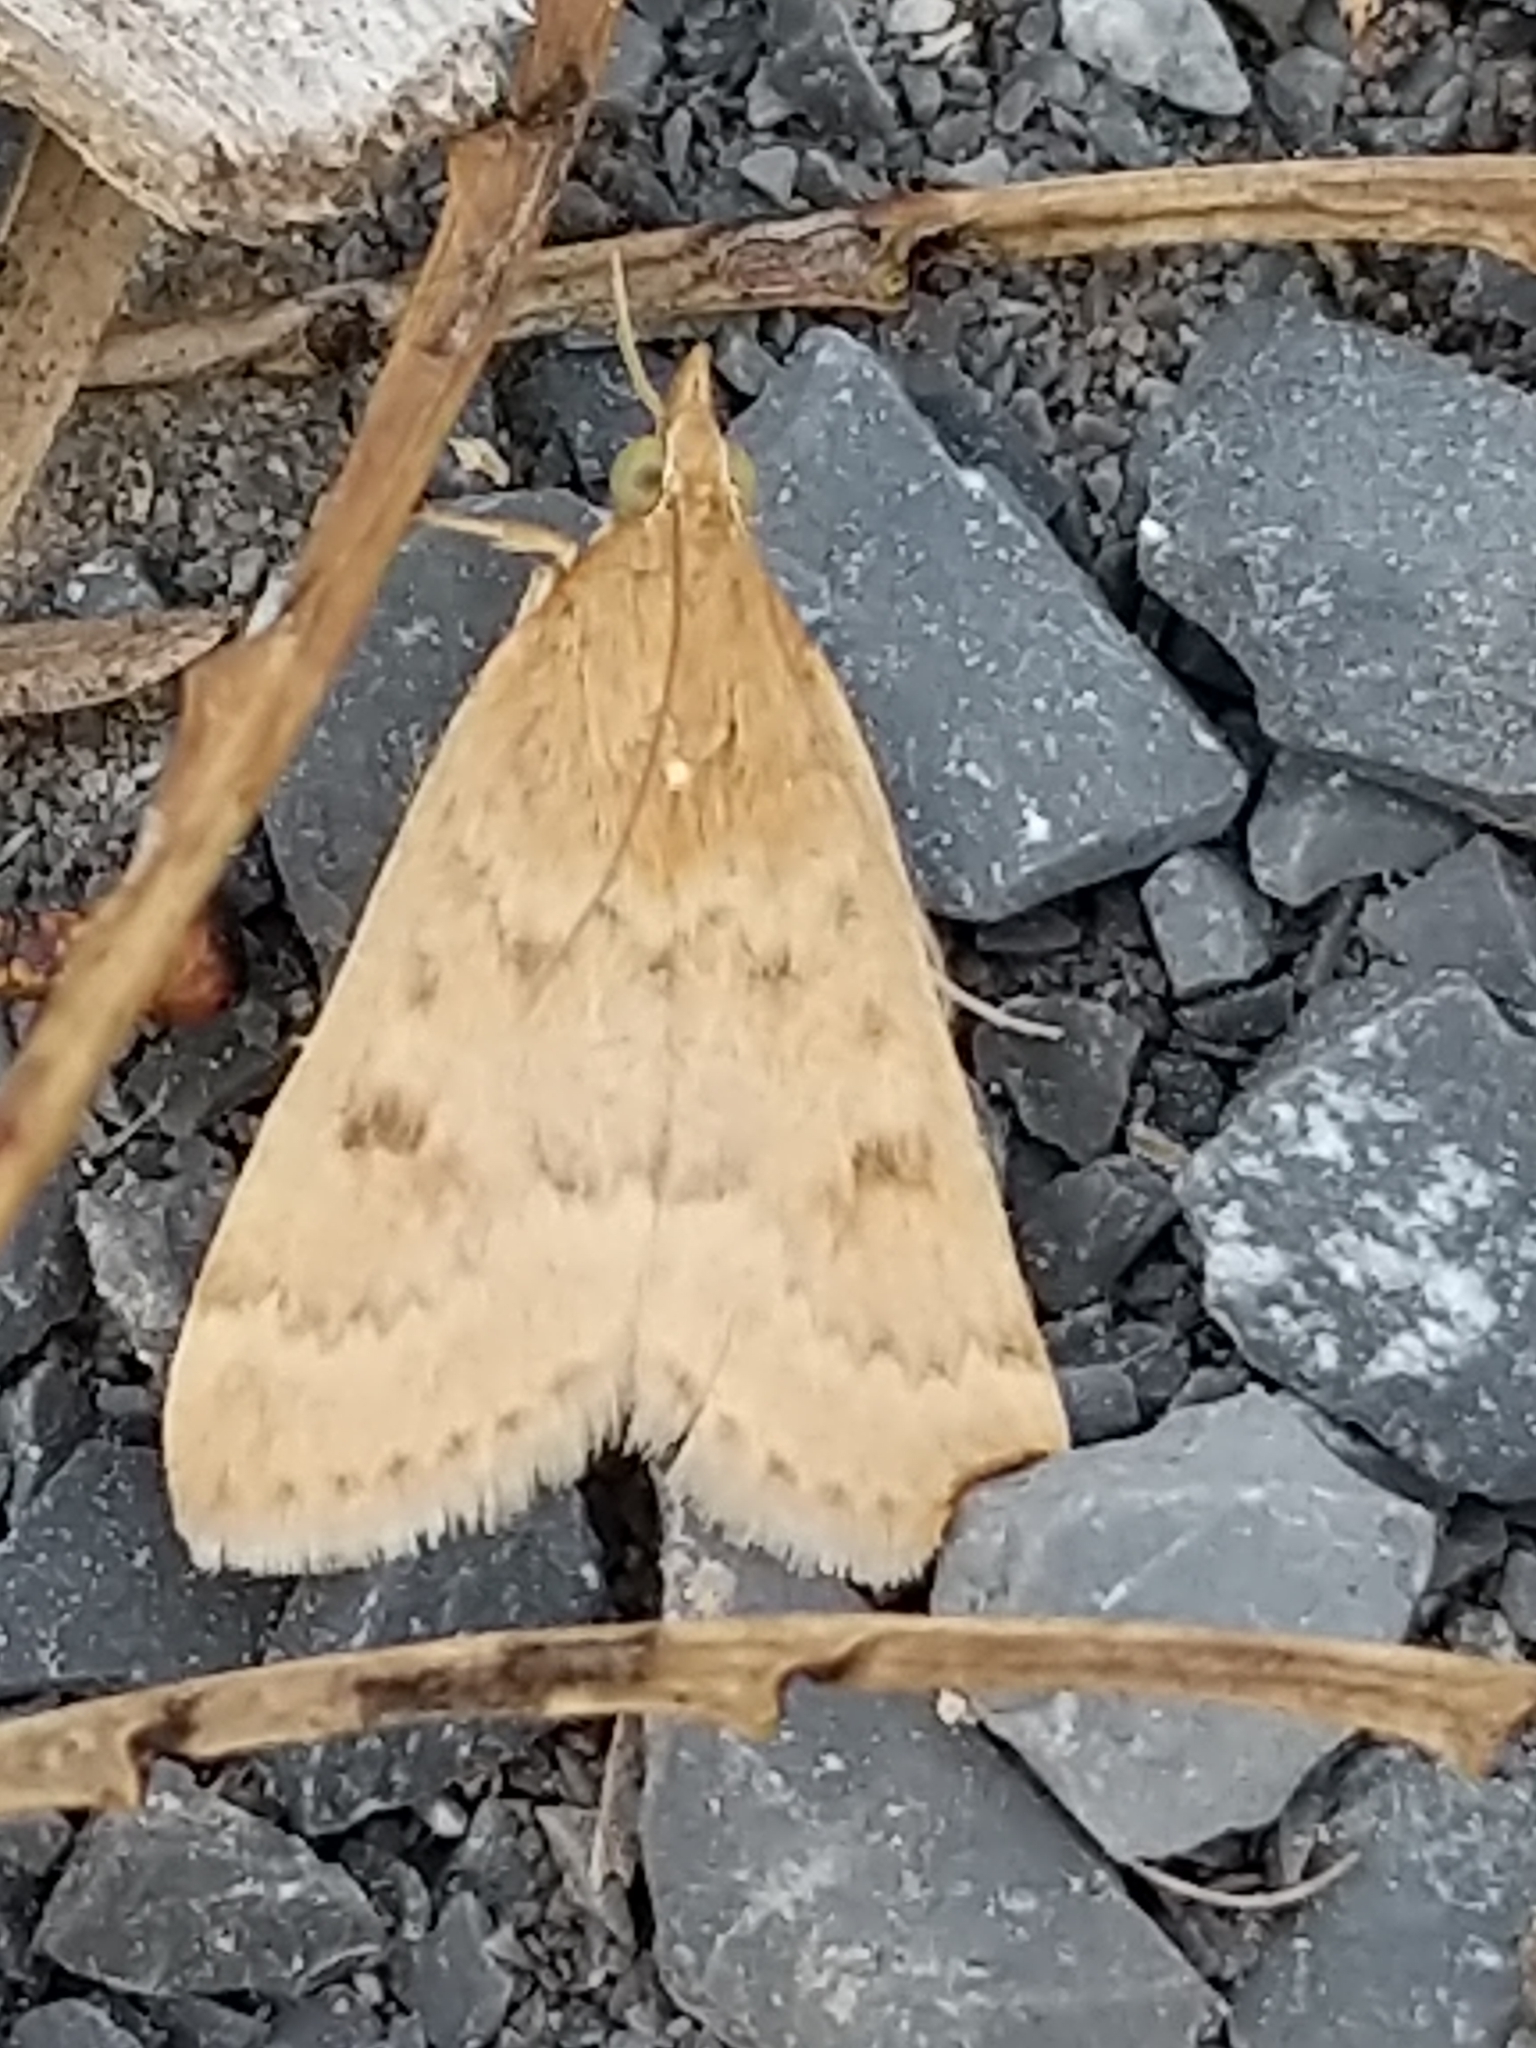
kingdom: Animalia
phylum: Arthropoda
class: Insecta
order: Lepidoptera
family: Crambidae
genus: Achyra
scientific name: Achyra rantalis
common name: Garden webworm
